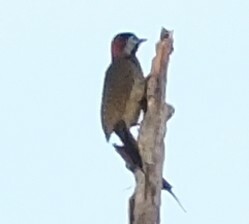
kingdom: Animalia
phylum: Chordata
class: Aves
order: Piciformes
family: Picidae
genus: Colaptes
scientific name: Colaptes punctigula
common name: Spot-breasted woodpecker
